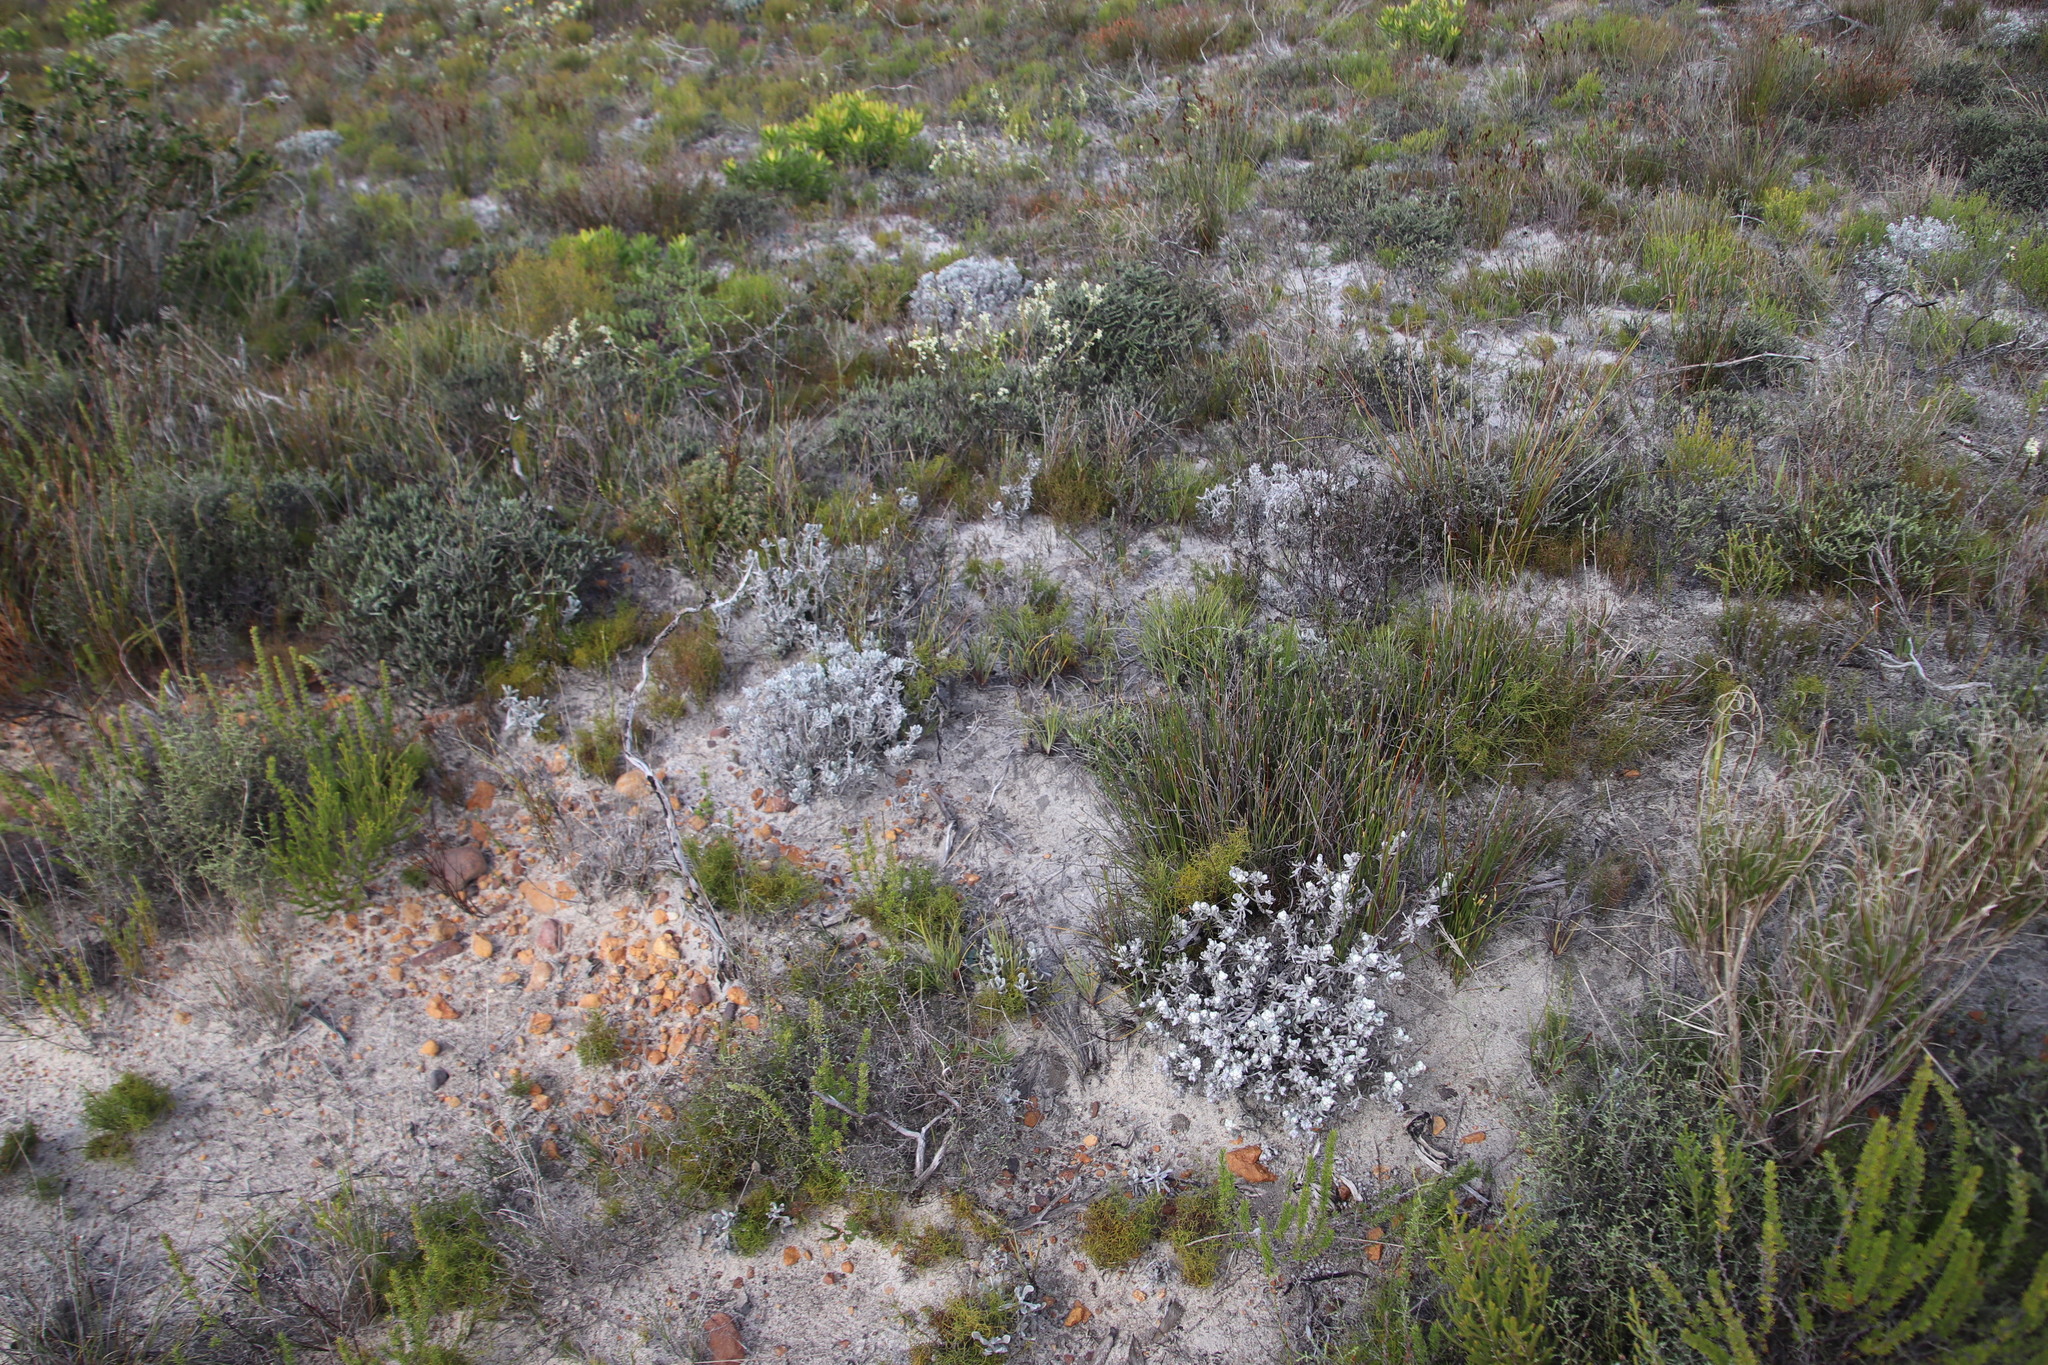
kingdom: Plantae
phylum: Tracheophyta
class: Magnoliopsida
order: Asterales
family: Asteraceae
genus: Petalacte
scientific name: Petalacte coronata
